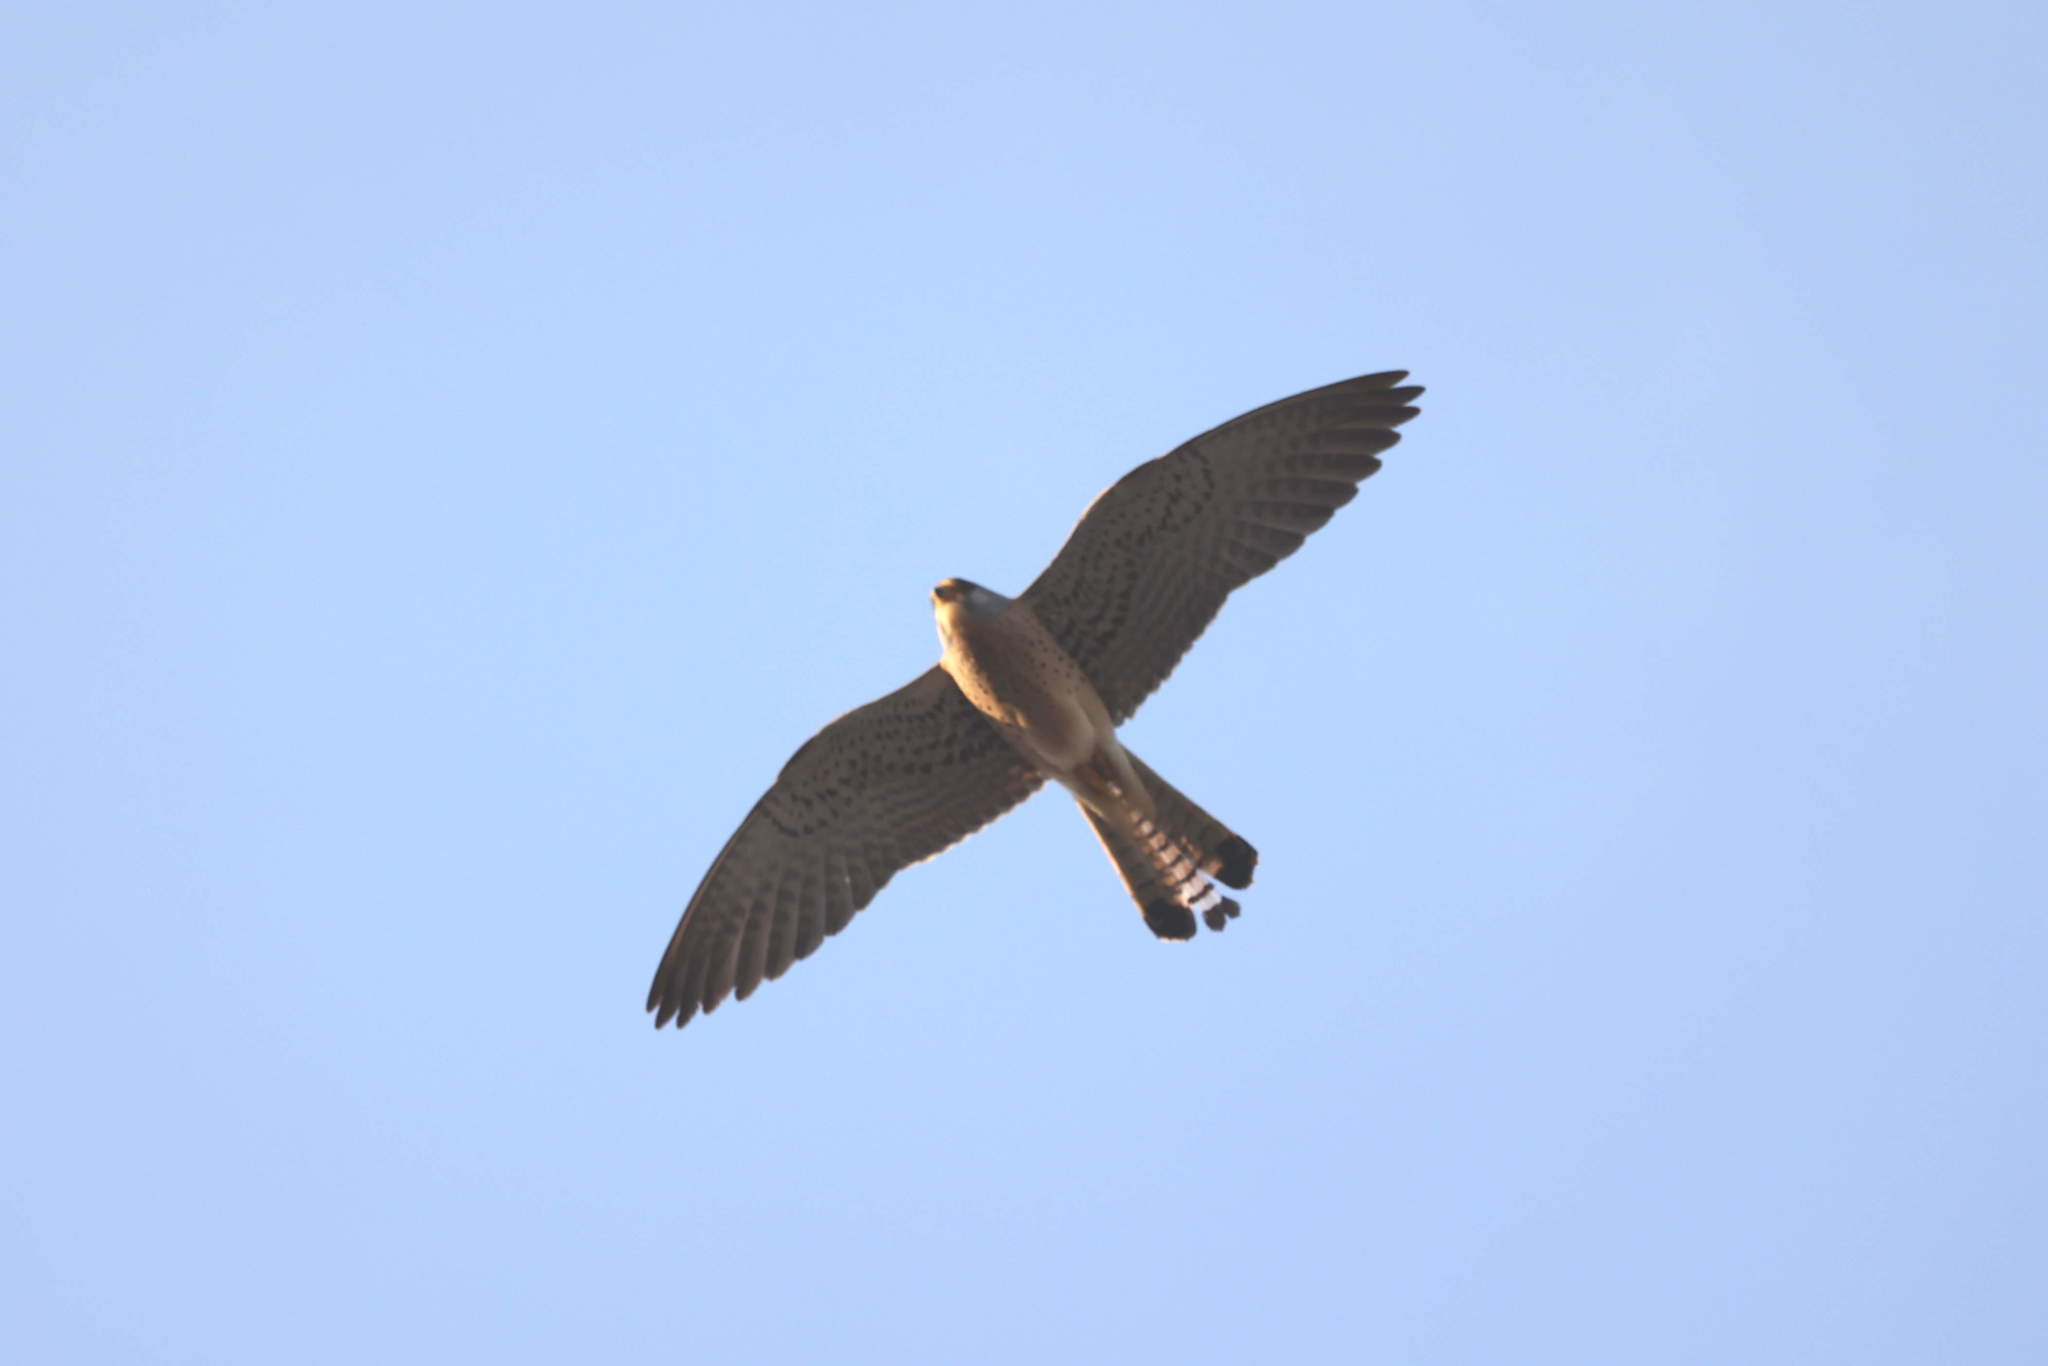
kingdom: Animalia
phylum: Chordata
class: Aves
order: Falconiformes
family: Falconidae
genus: Falco
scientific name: Falco naumanni
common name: Lesser kestrel
